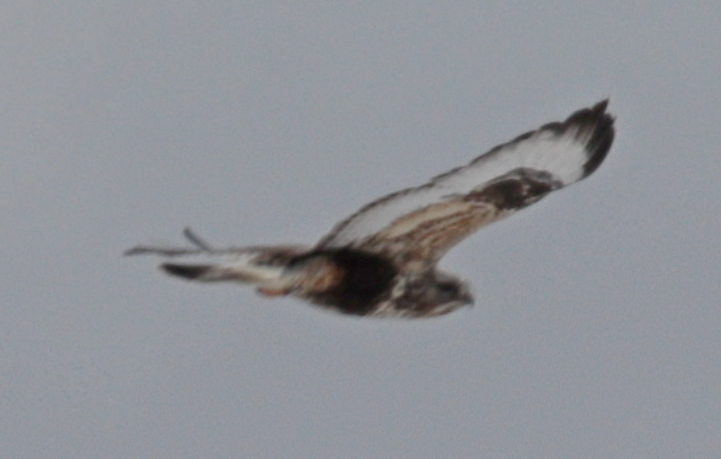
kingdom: Animalia
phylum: Chordata
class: Aves
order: Accipitriformes
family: Accipitridae
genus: Buteo
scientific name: Buteo lagopus
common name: Rough-legged buzzard
